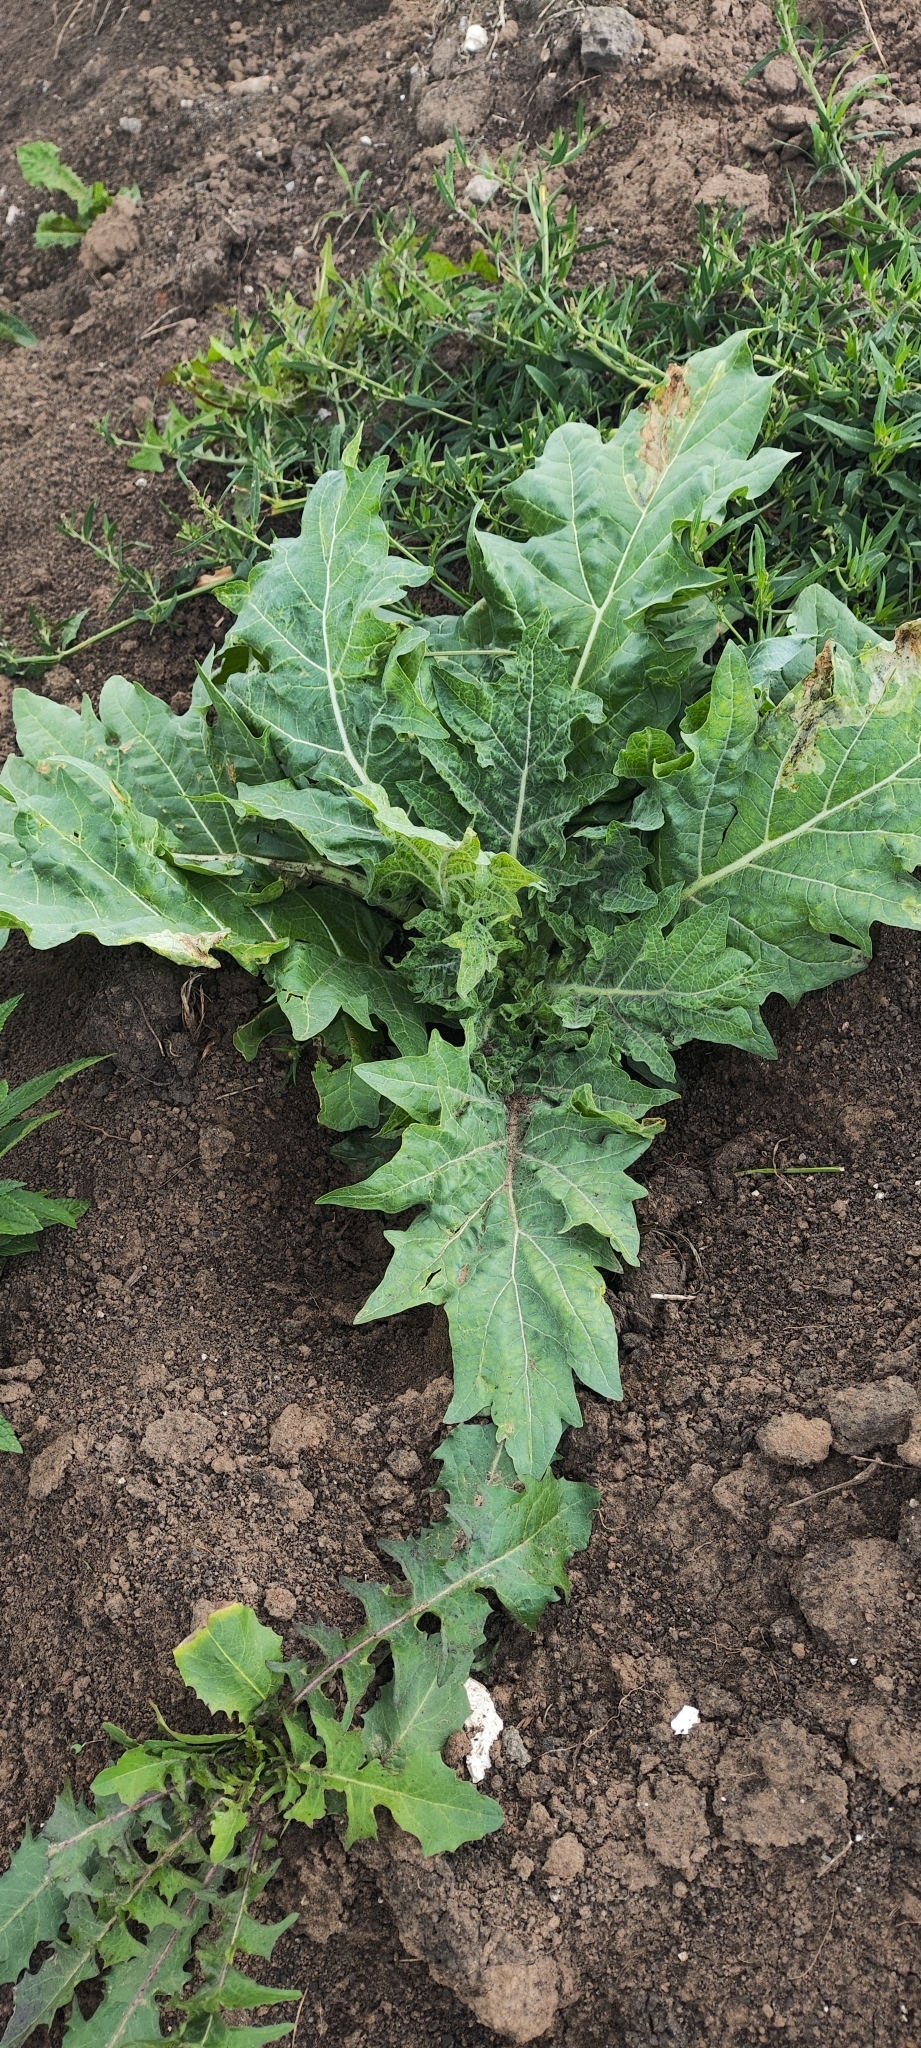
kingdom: Plantae
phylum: Tracheophyta
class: Magnoliopsida
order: Solanales
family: Solanaceae
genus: Hyoscyamus
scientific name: Hyoscyamus niger
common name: Henbane
